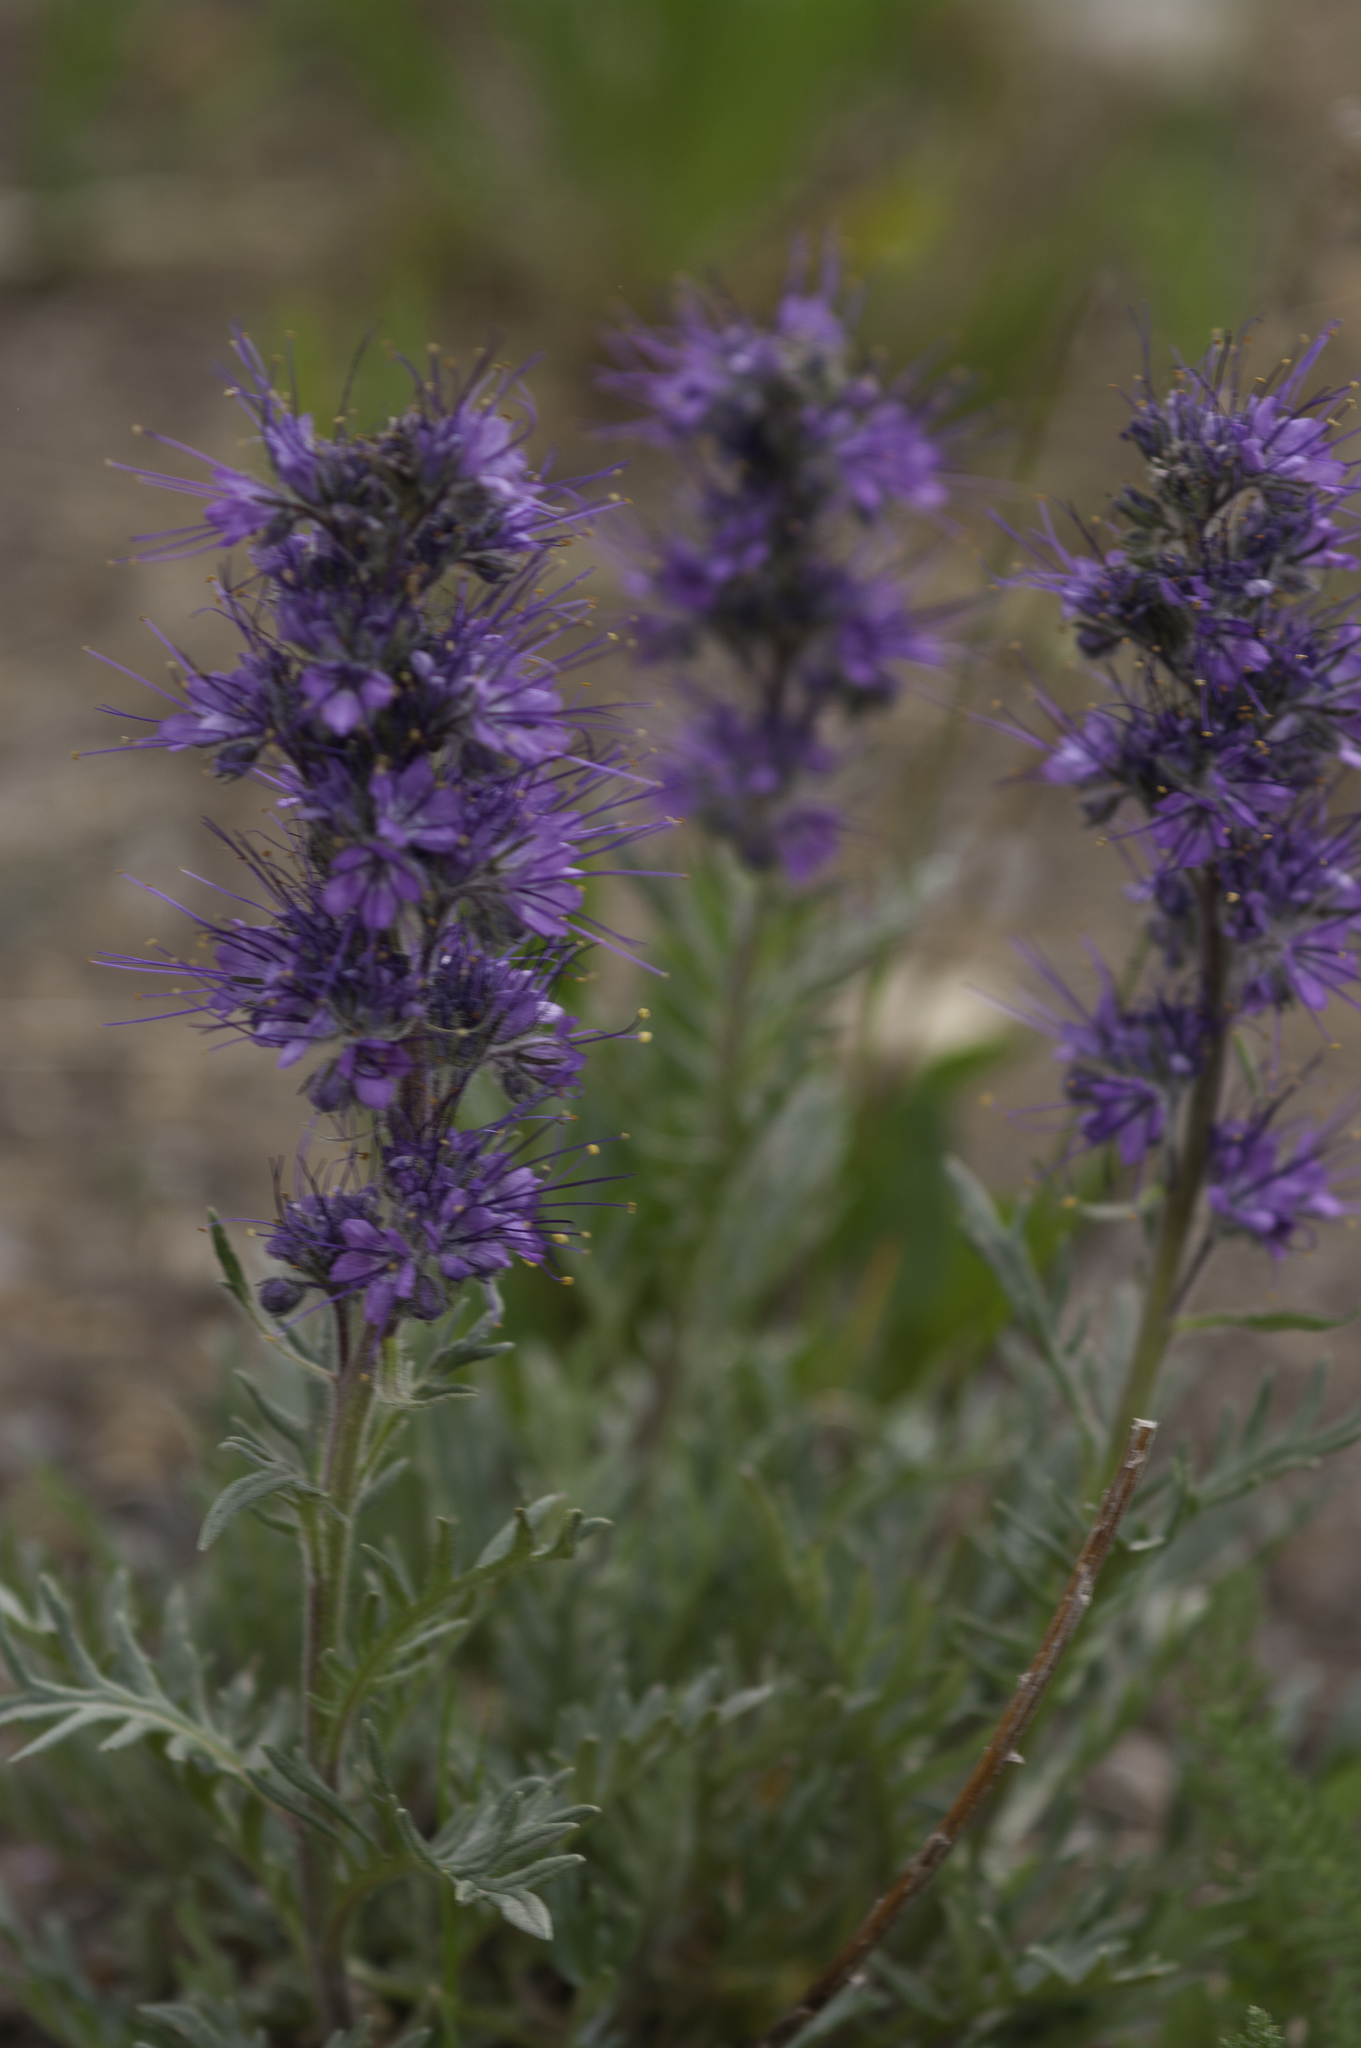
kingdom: Plantae
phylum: Tracheophyta
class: Magnoliopsida
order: Boraginales
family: Hydrophyllaceae
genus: Phacelia
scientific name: Phacelia sericea
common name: Silky phacelia
